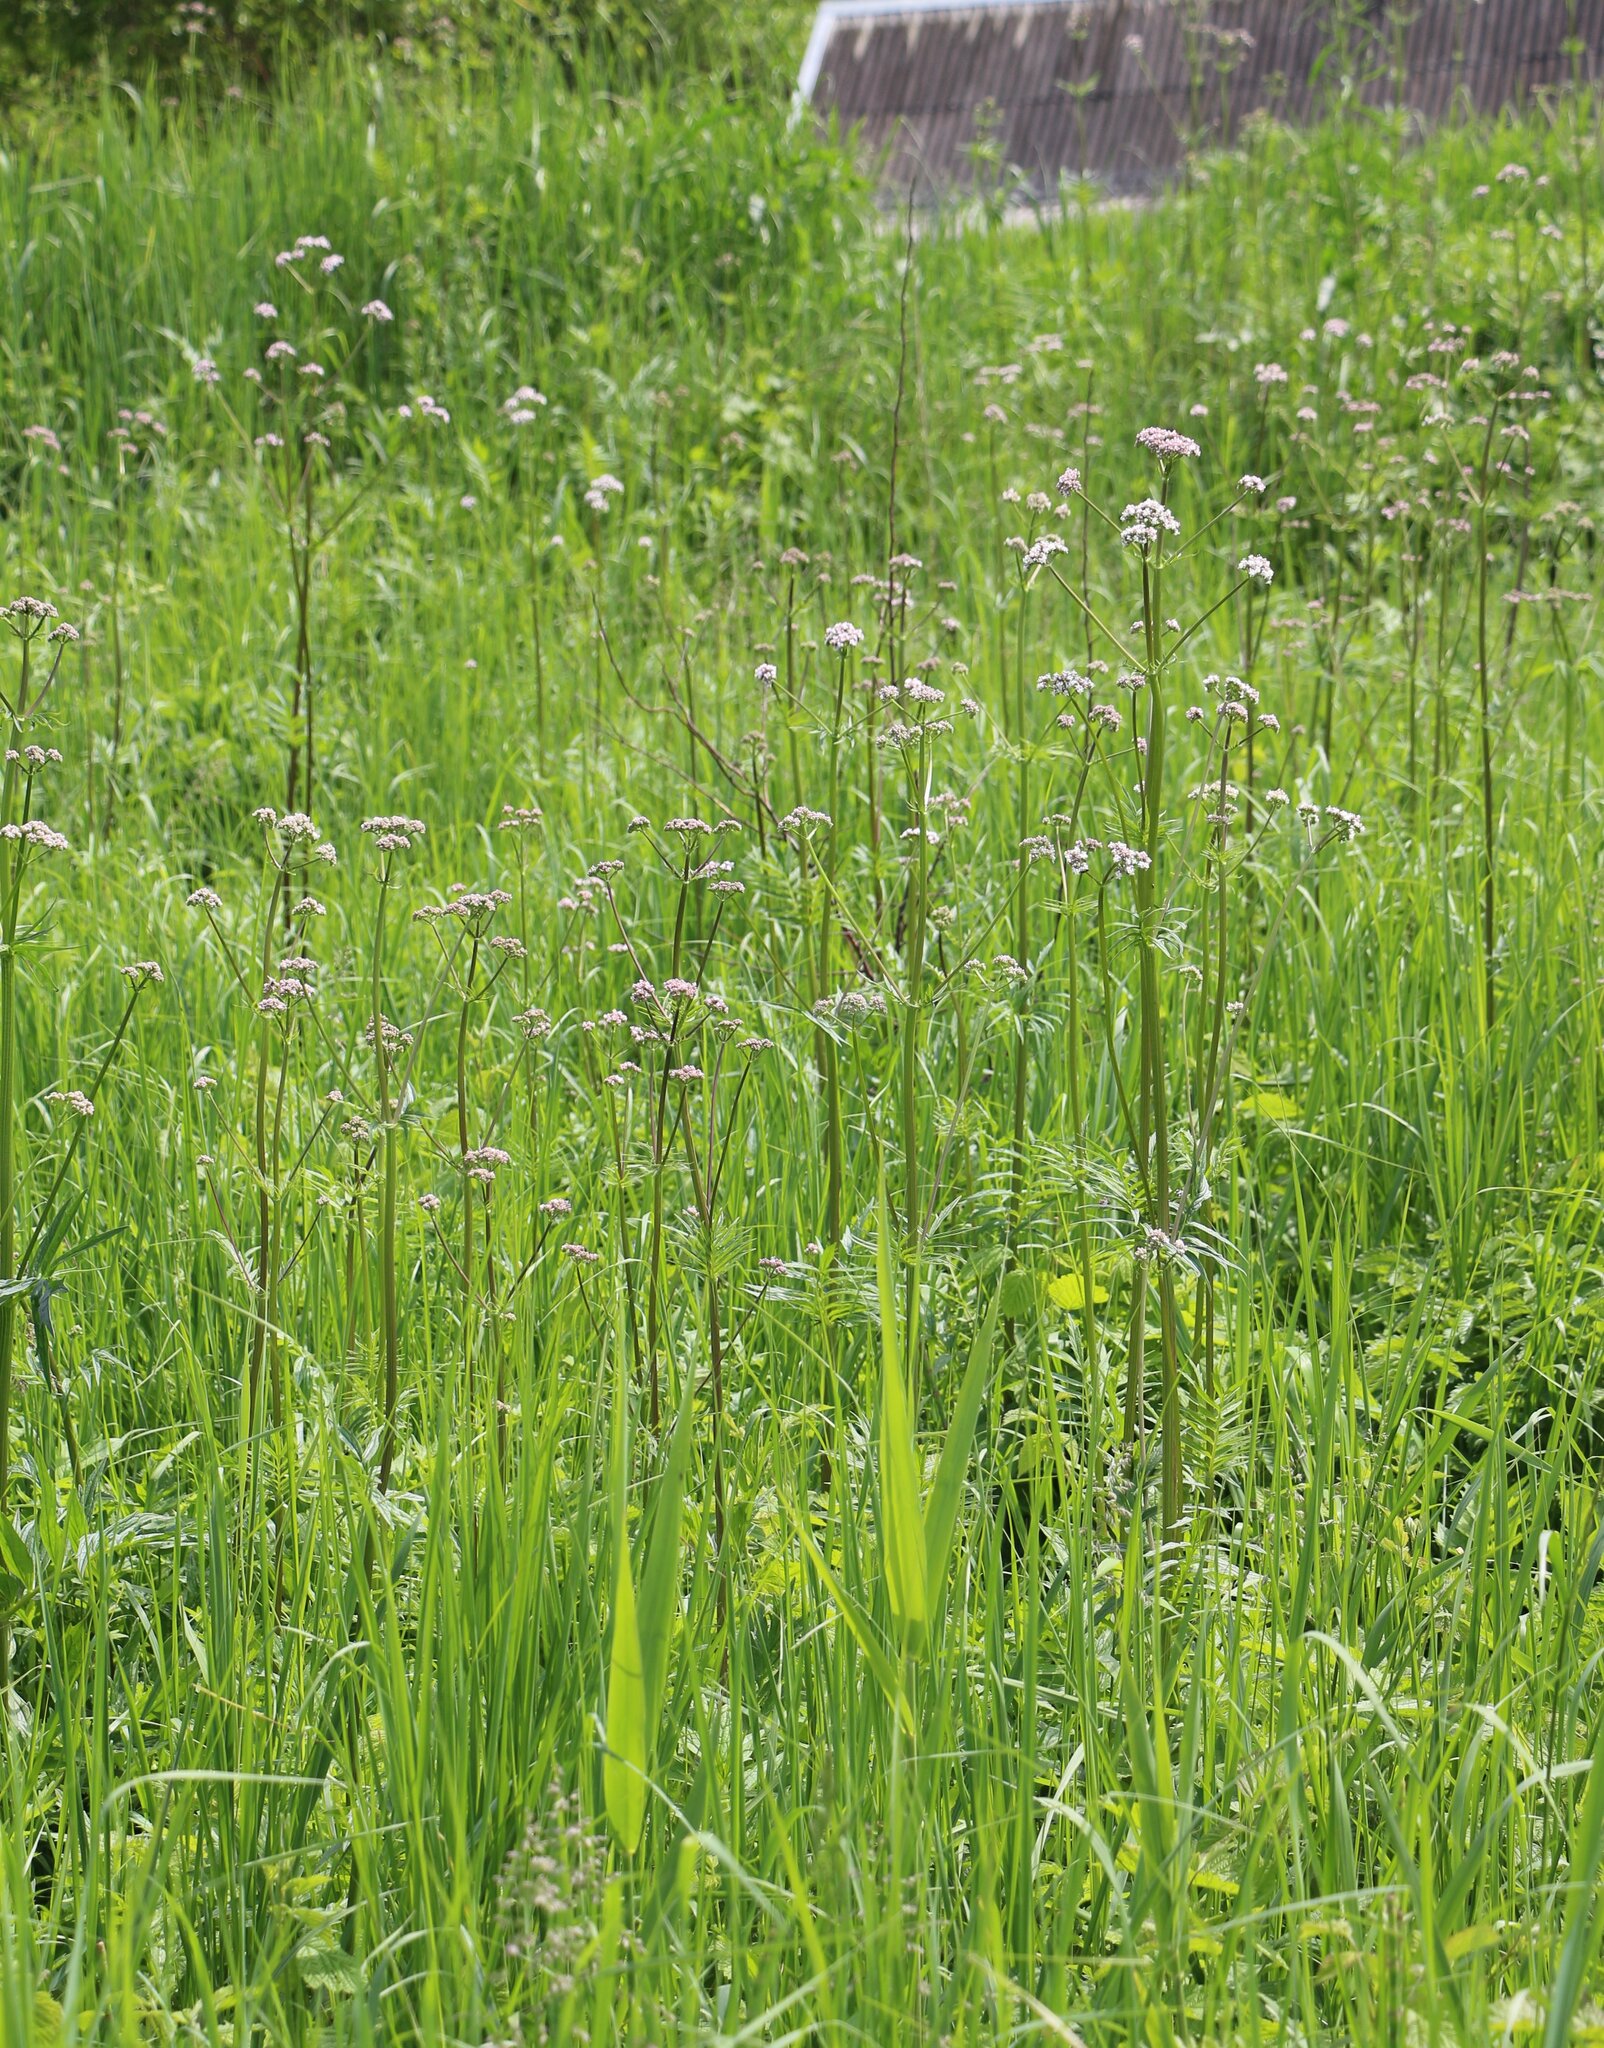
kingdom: Plantae
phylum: Tracheophyta
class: Magnoliopsida
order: Dipsacales
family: Caprifoliaceae
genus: Valeriana
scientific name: Valeriana officinalis
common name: Common valerian
